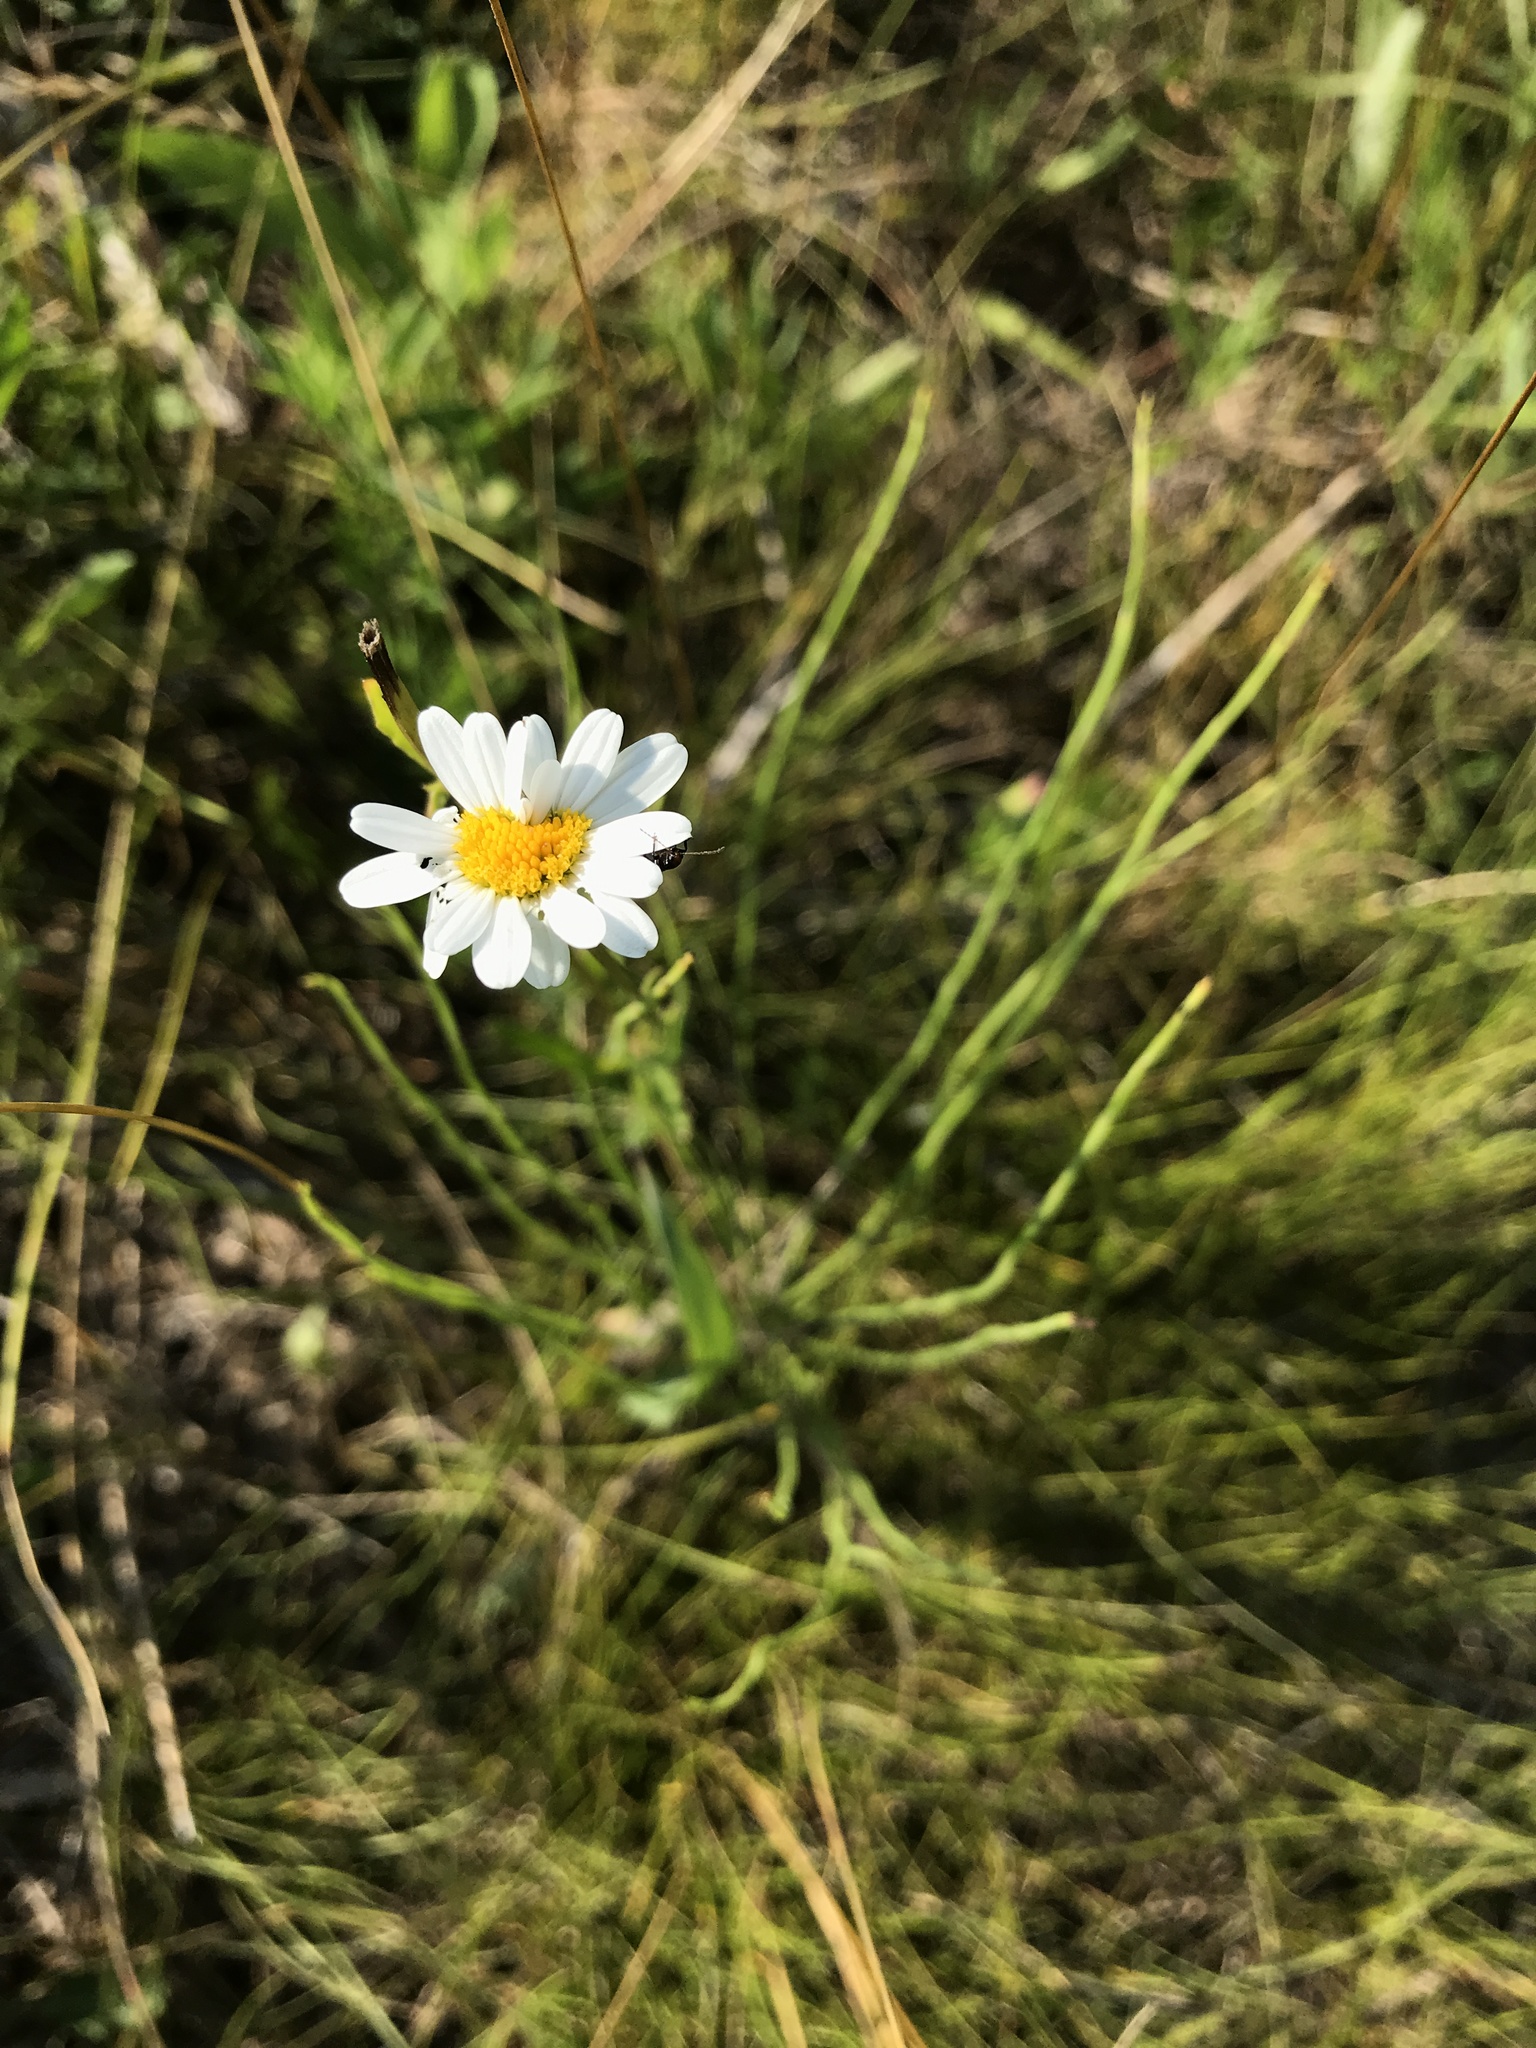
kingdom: Plantae
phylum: Tracheophyta
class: Magnoliopsida
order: Asterales
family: Asteraceae
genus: Leucanthemum
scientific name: Leucanthemum vulgare
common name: Oxeye daisy
